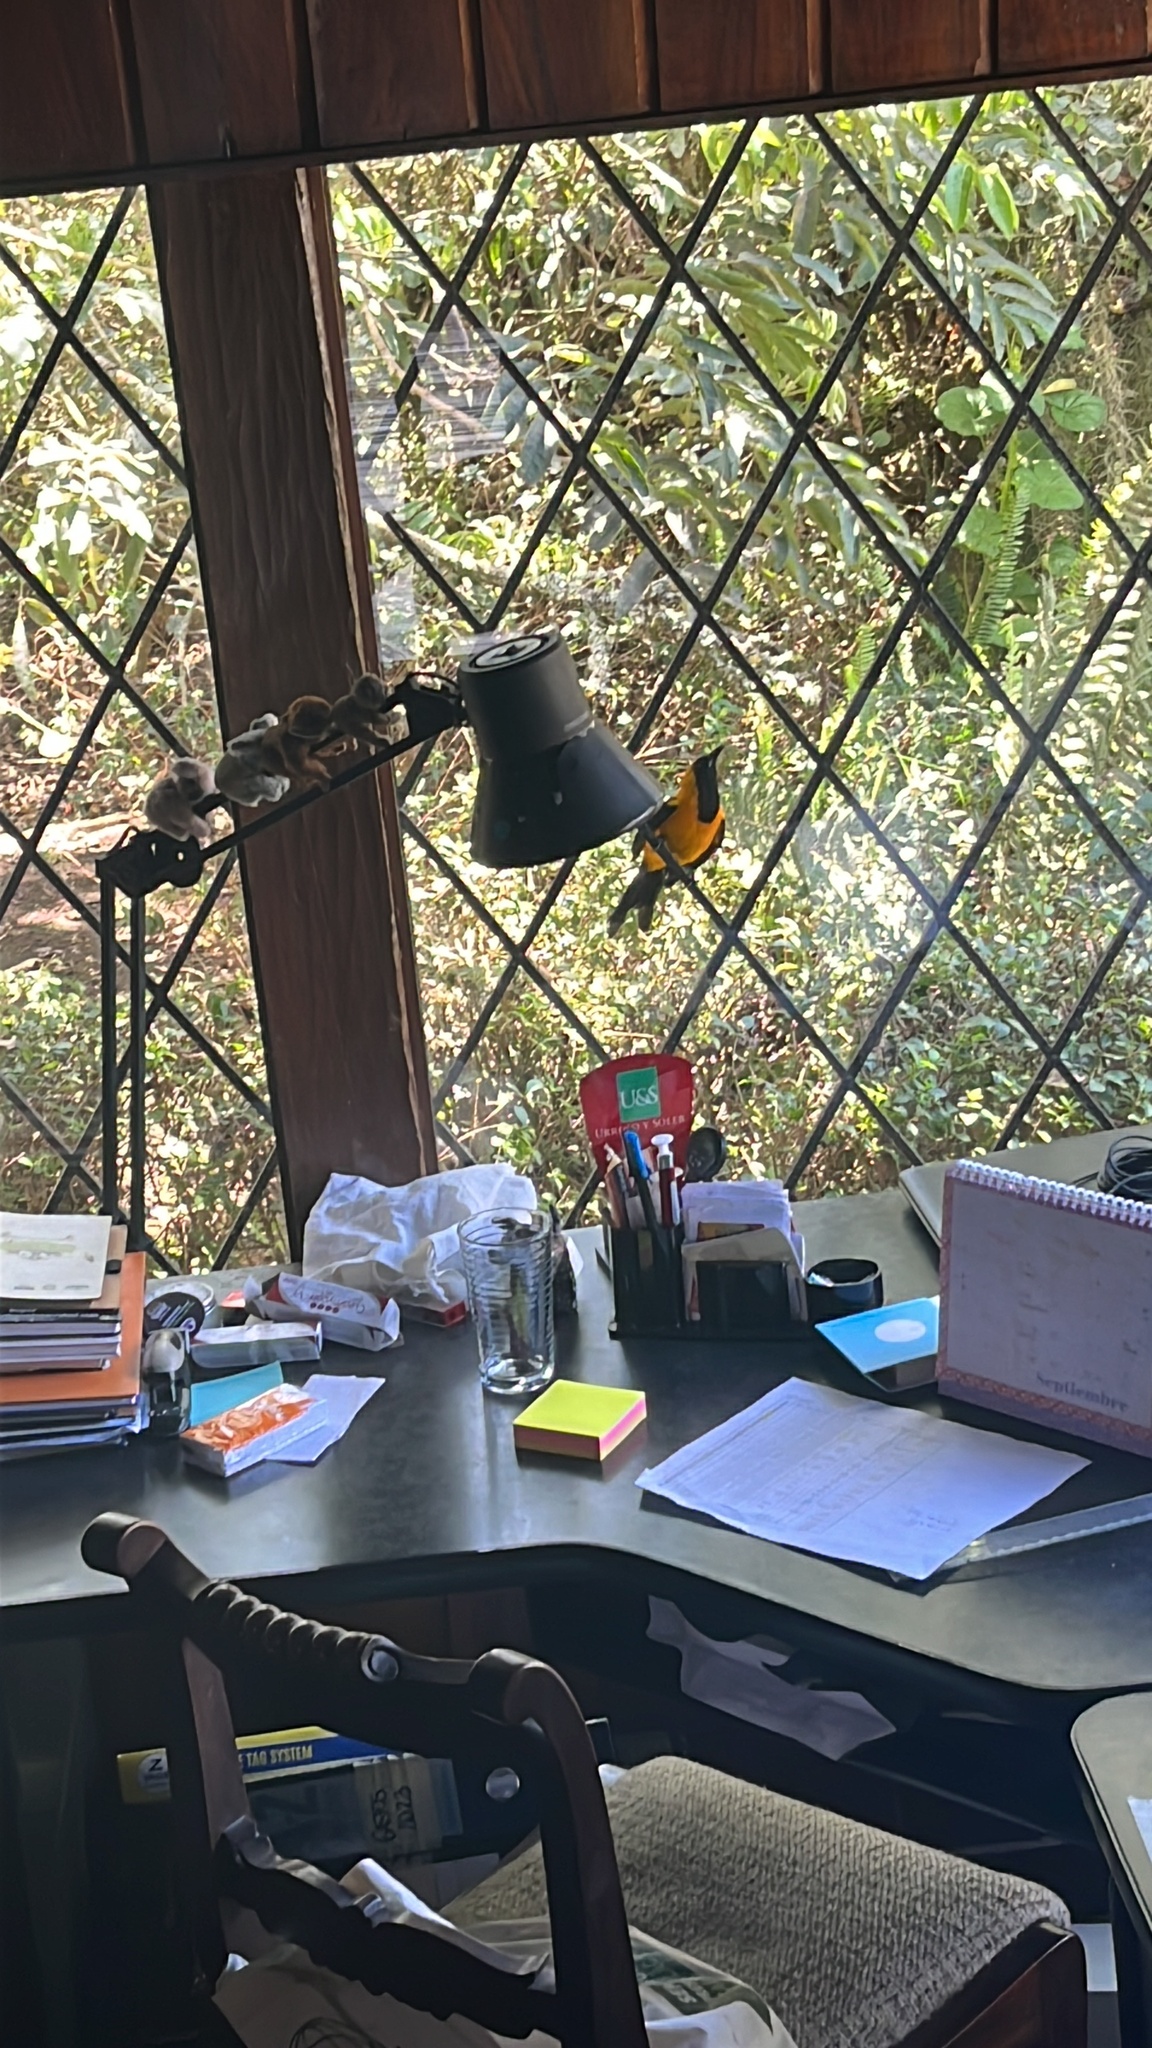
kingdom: Animalia
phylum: Chordata
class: Aves
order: Passeriformes
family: Icteridae
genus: Icterus
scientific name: Icterus chrysater
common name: Yellow-backed oriole
